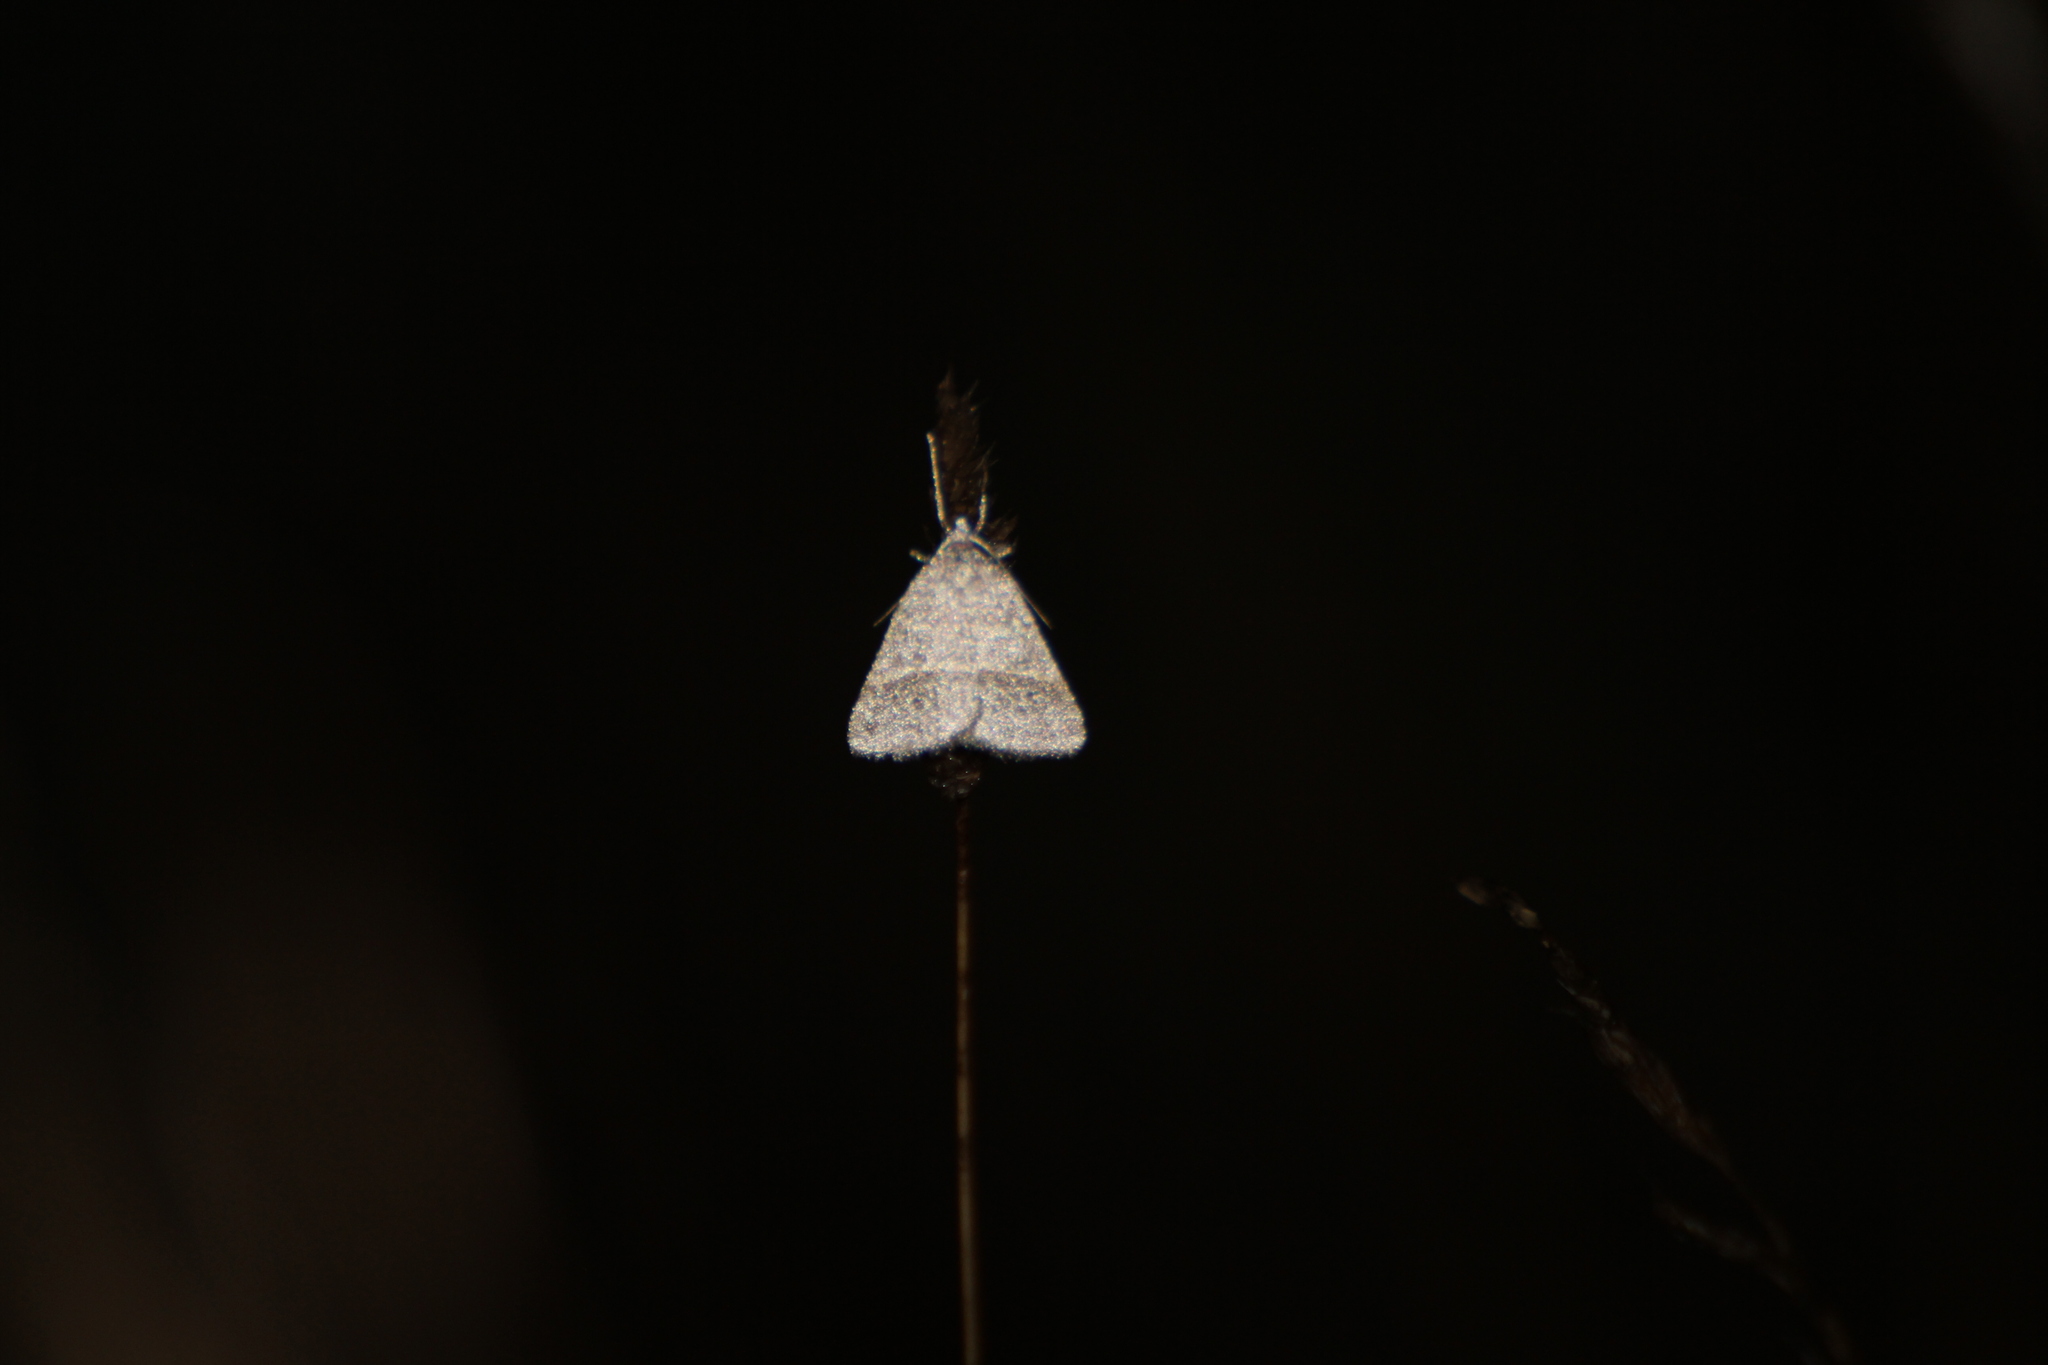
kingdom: Animalia
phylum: Arthropoda
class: Insecta
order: Lepidoptera
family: Pterophoridae
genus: Pterophorus
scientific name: Pterophorus Petrophora narbonea
